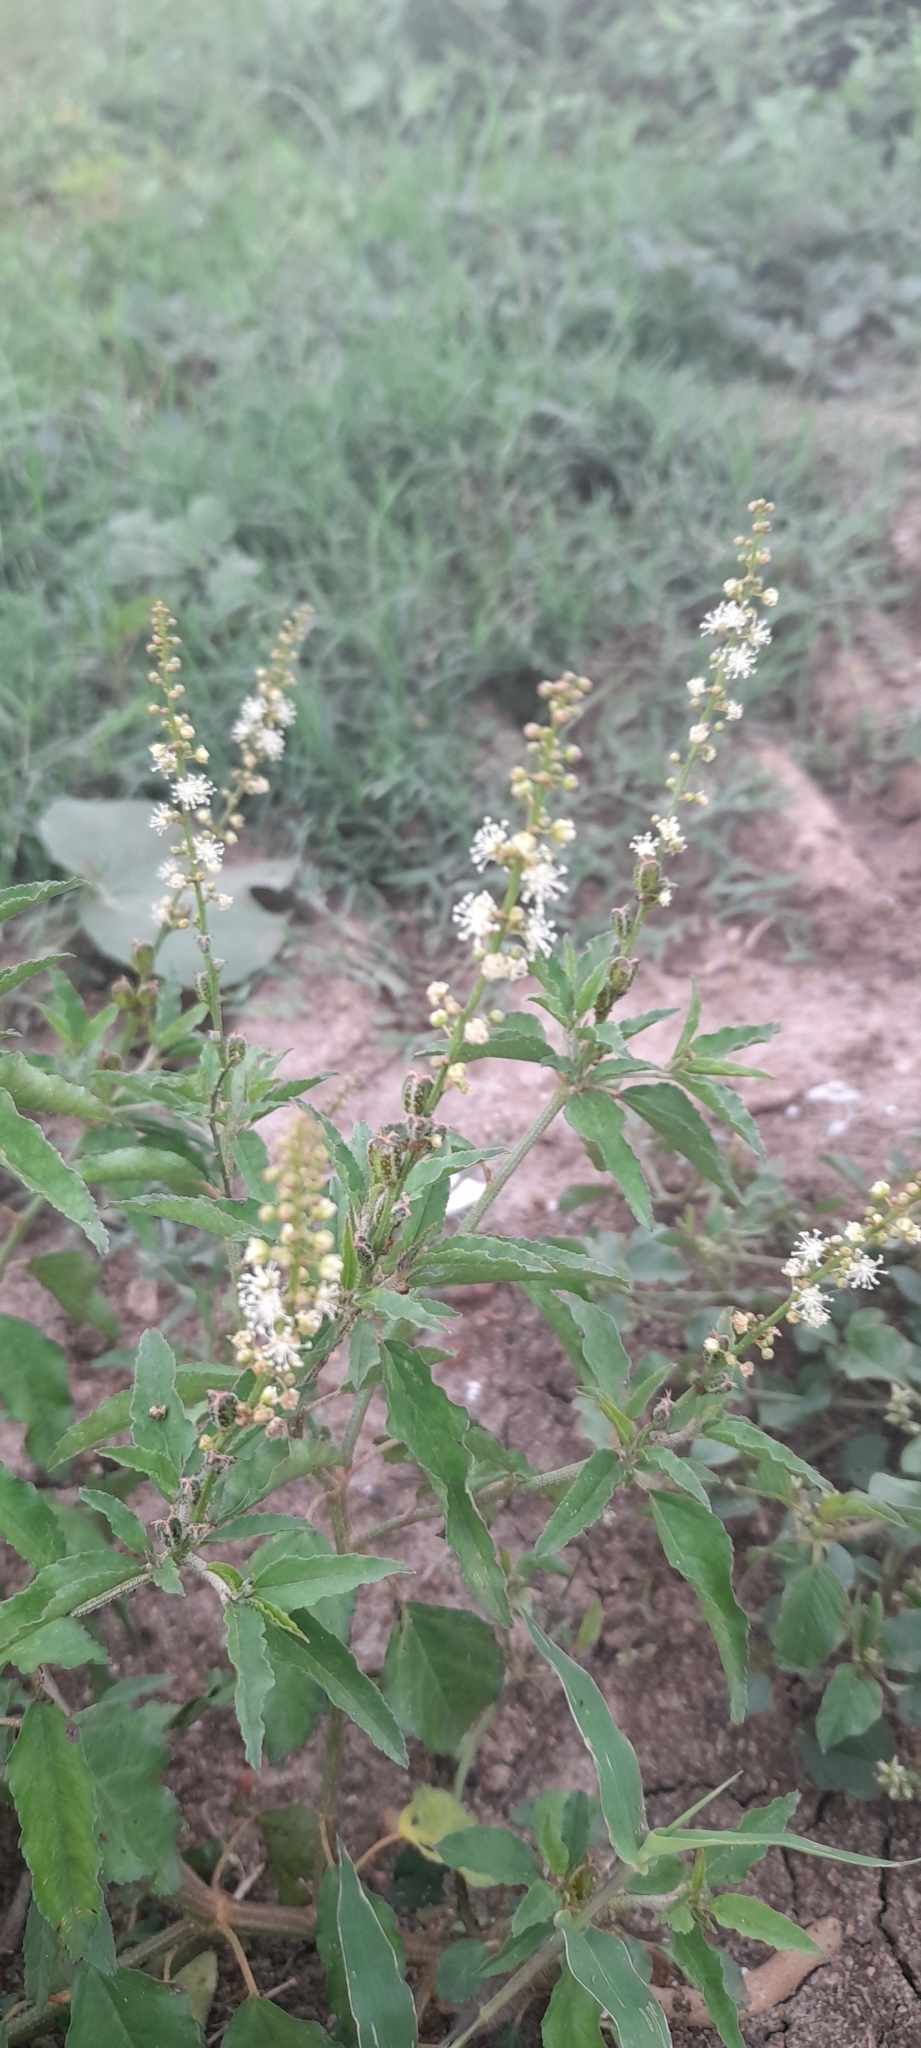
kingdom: Plantae
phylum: Tracheophyta
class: Magnoliopsida
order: Malpighiales
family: Euphorbiaceae
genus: Croton
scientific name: Croton bonplandianus
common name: Bonpland's croton
